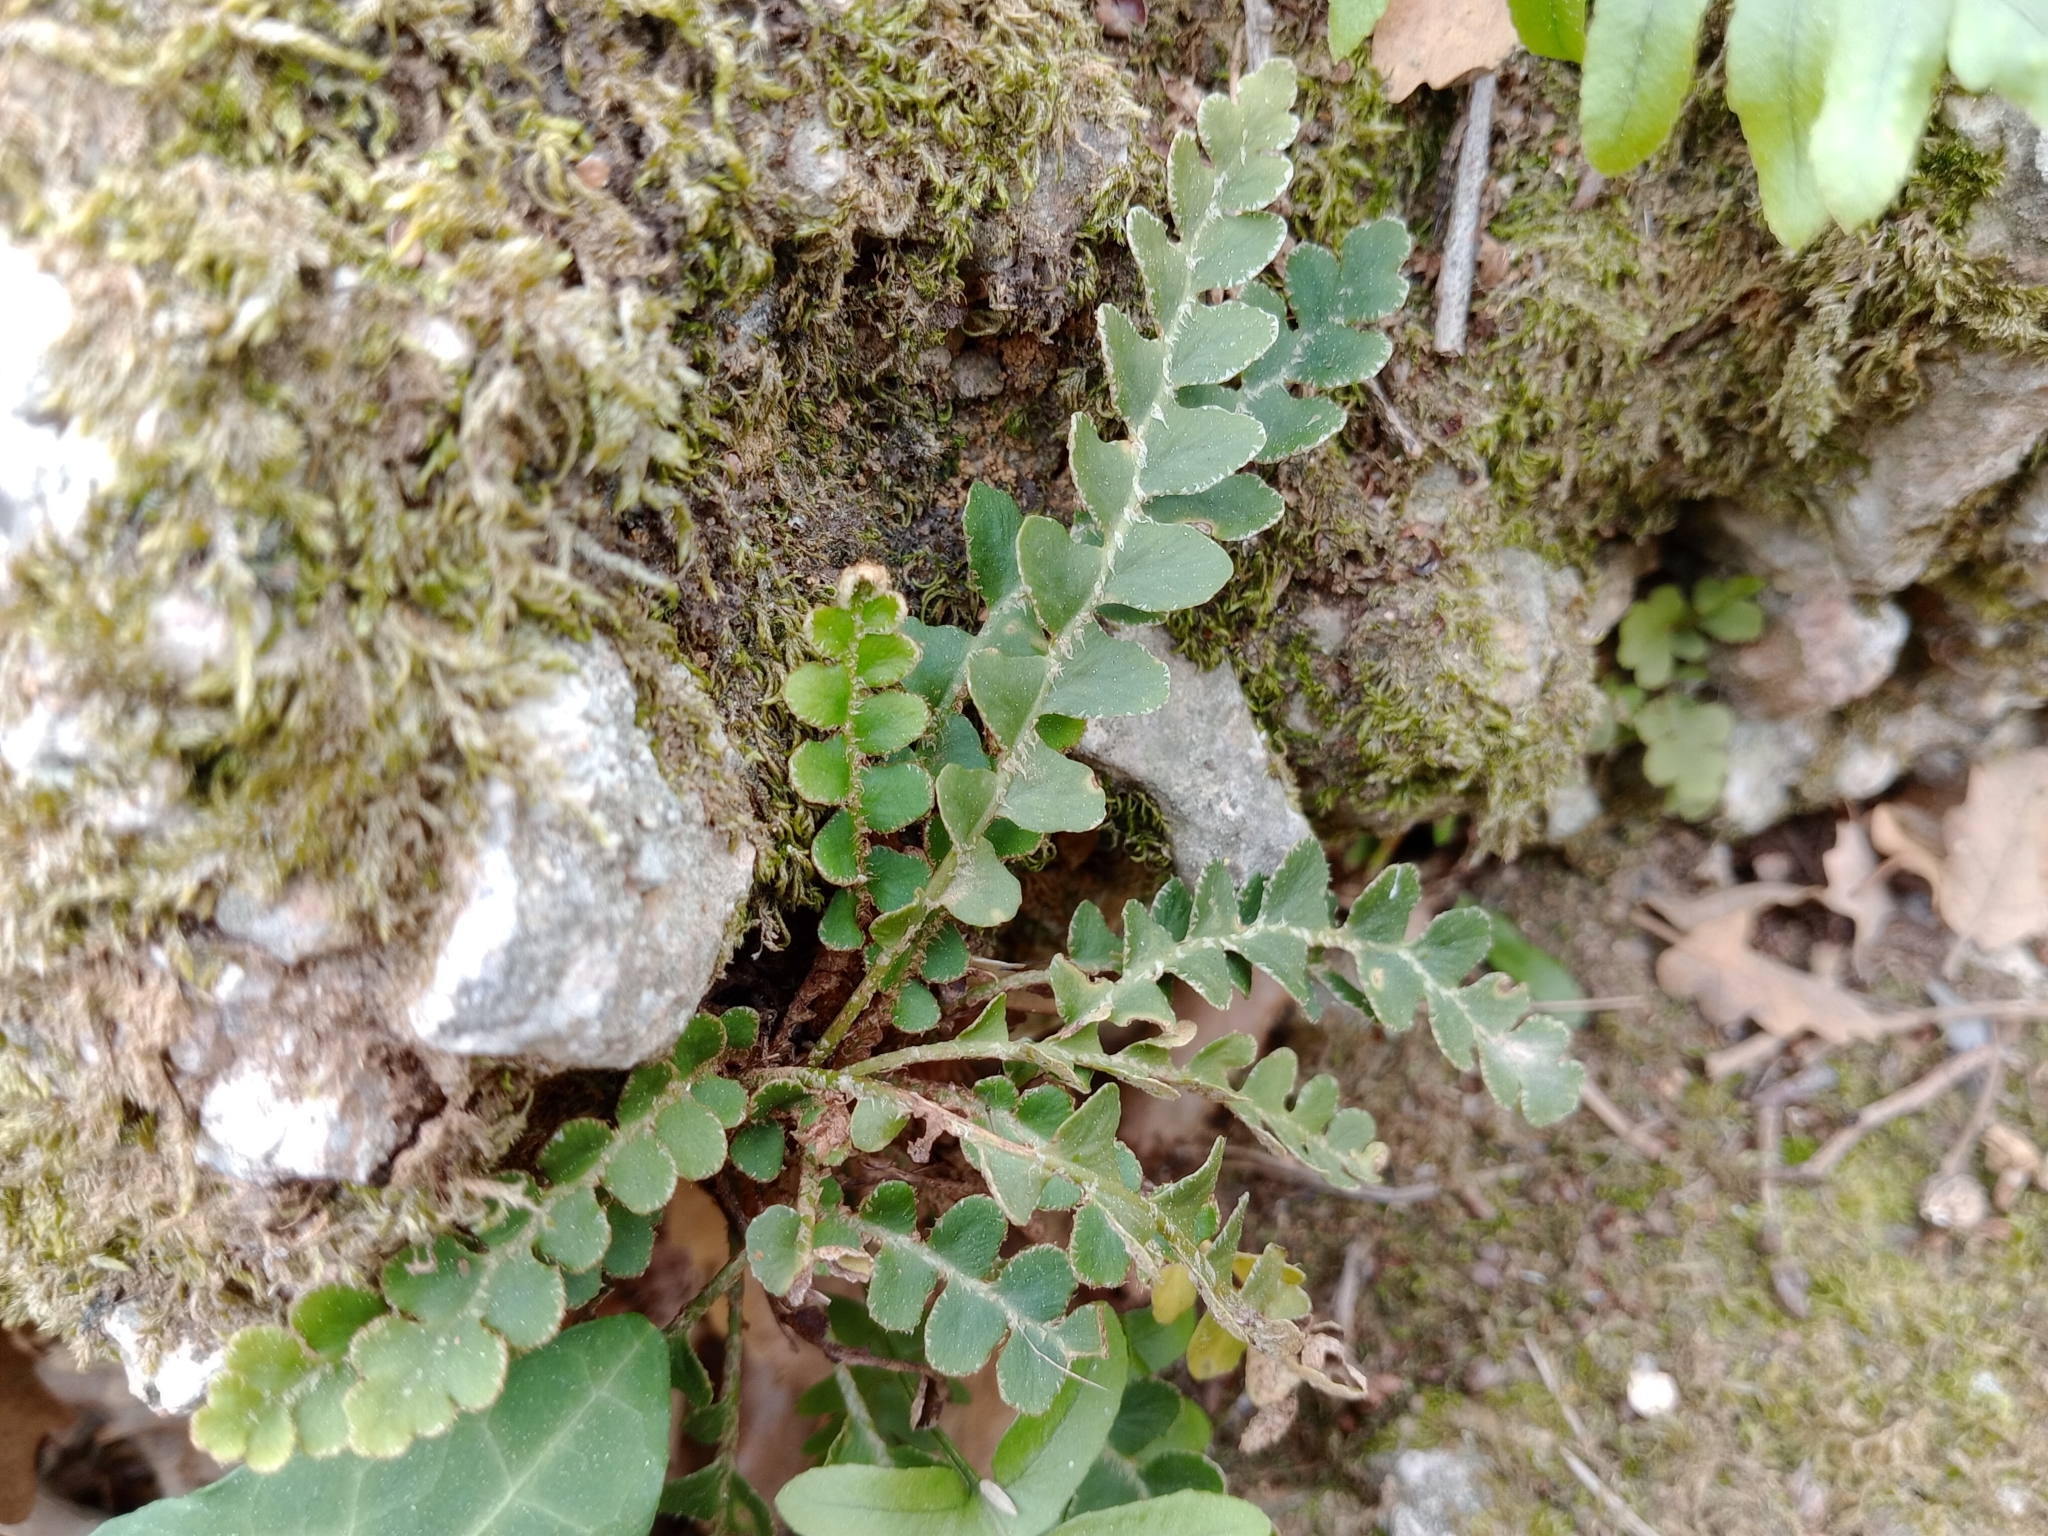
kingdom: Plantae
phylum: Tracheophyta
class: Polypodiopsida
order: Polypodiales
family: Aspleniaceae
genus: Asplenium
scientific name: Asplenium ceterach
